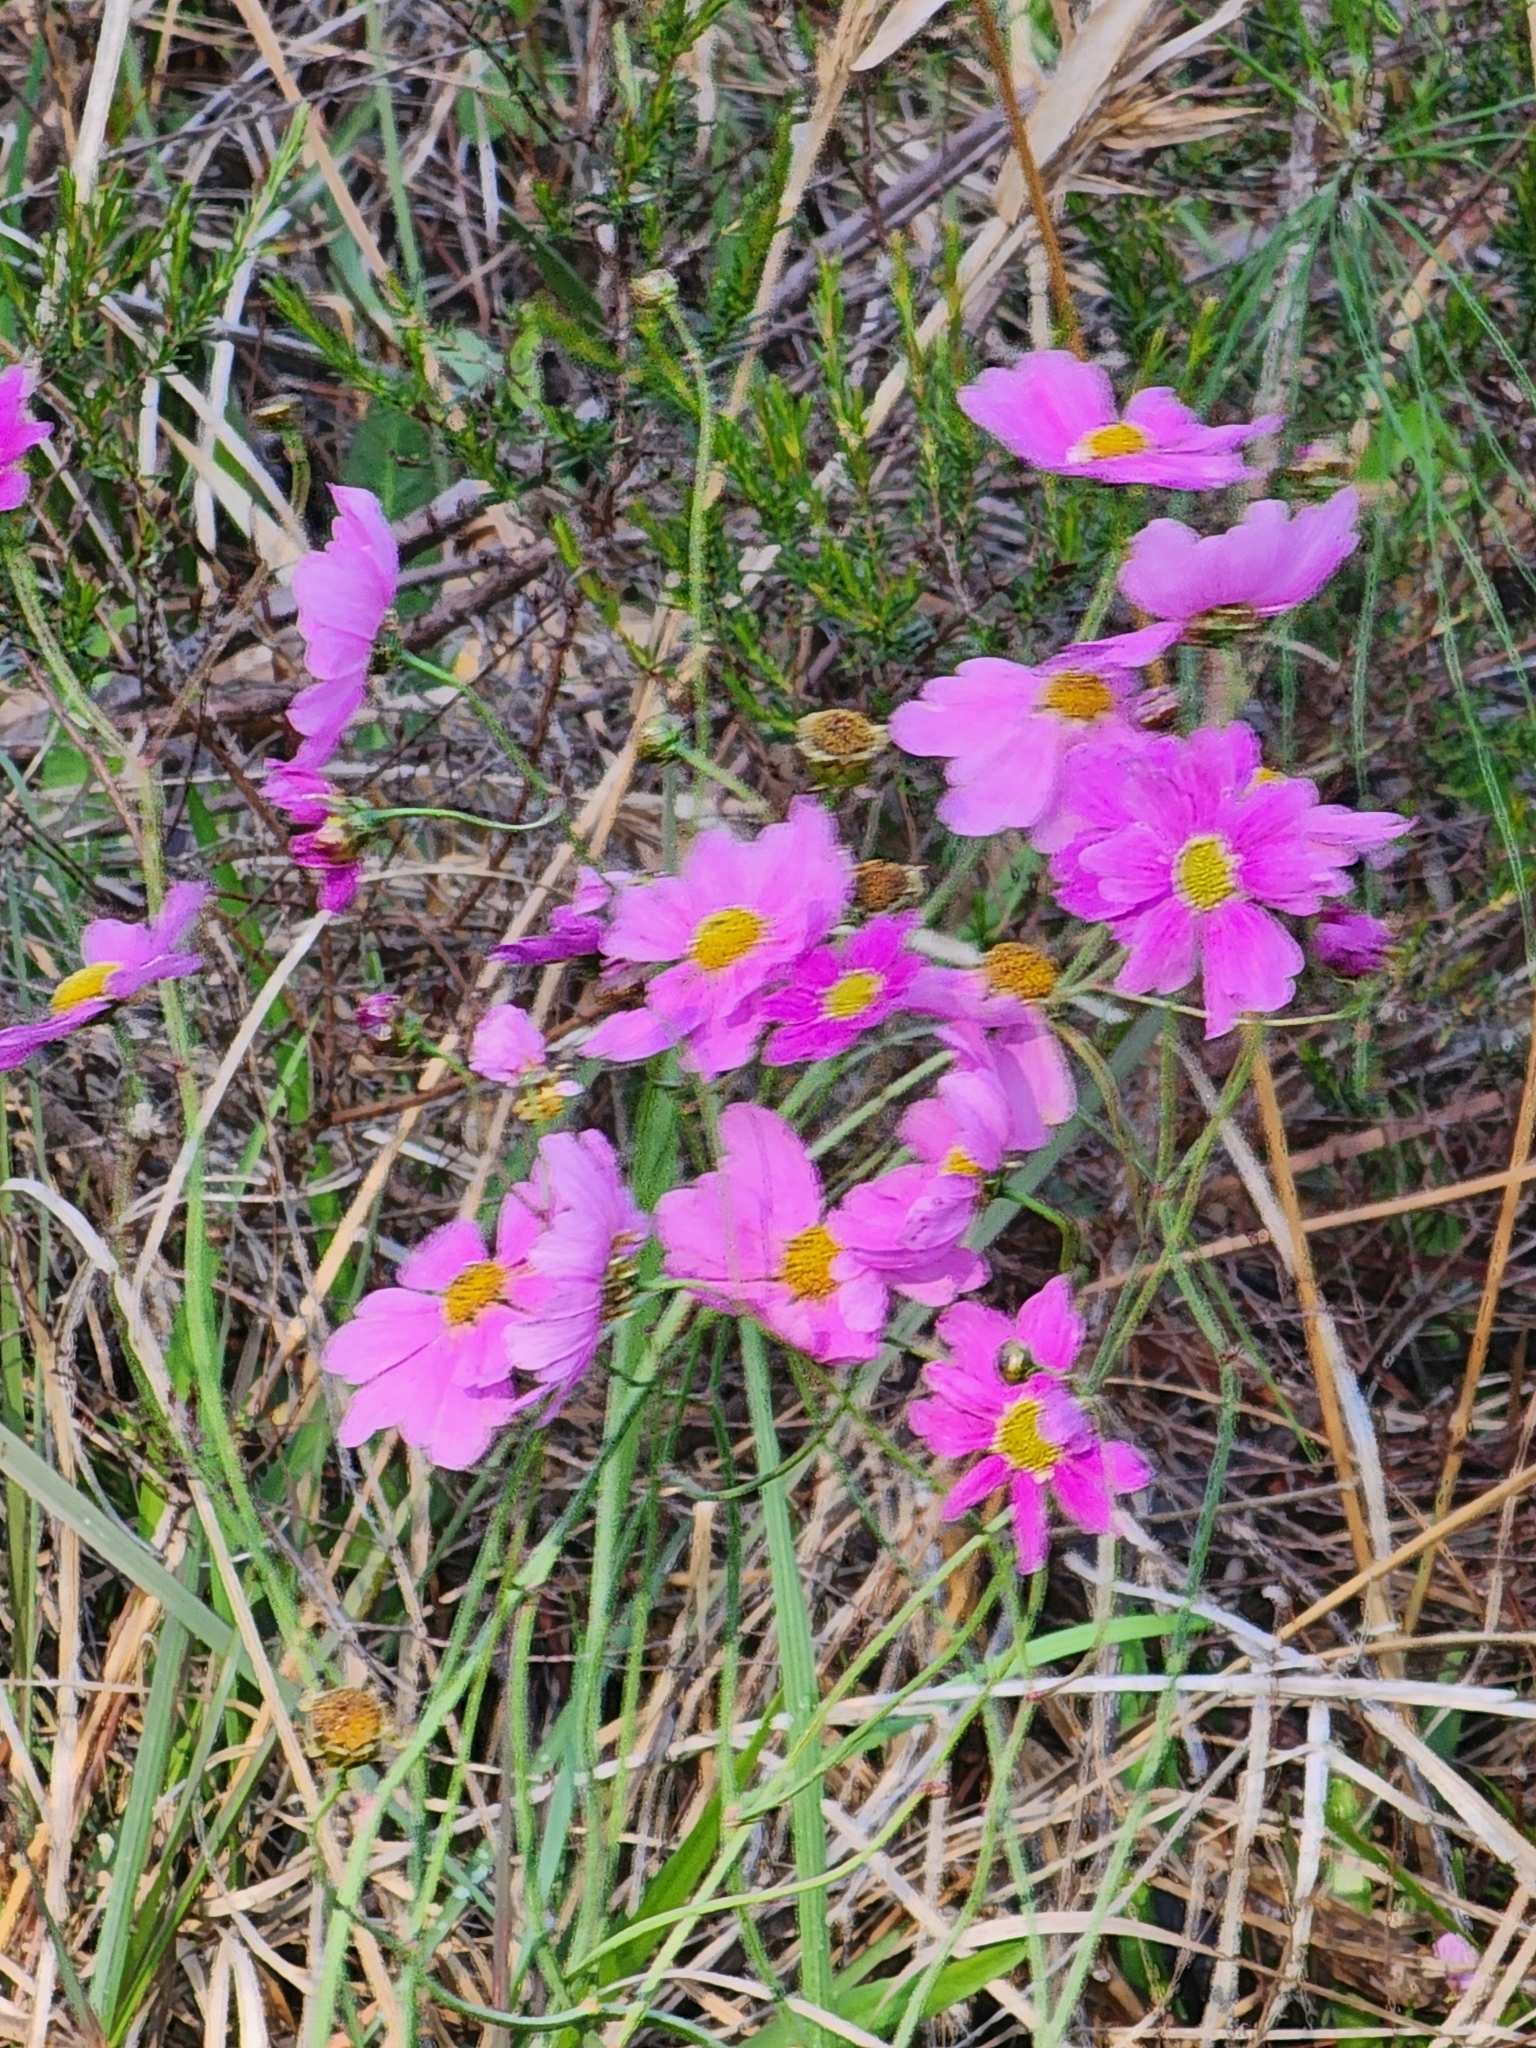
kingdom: Plantae
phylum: Tracheophyta
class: Magnoliopsida
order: Asterales
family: Asteraceae
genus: Coreopsis
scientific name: Coreopsis nudata
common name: Purple tickseed
